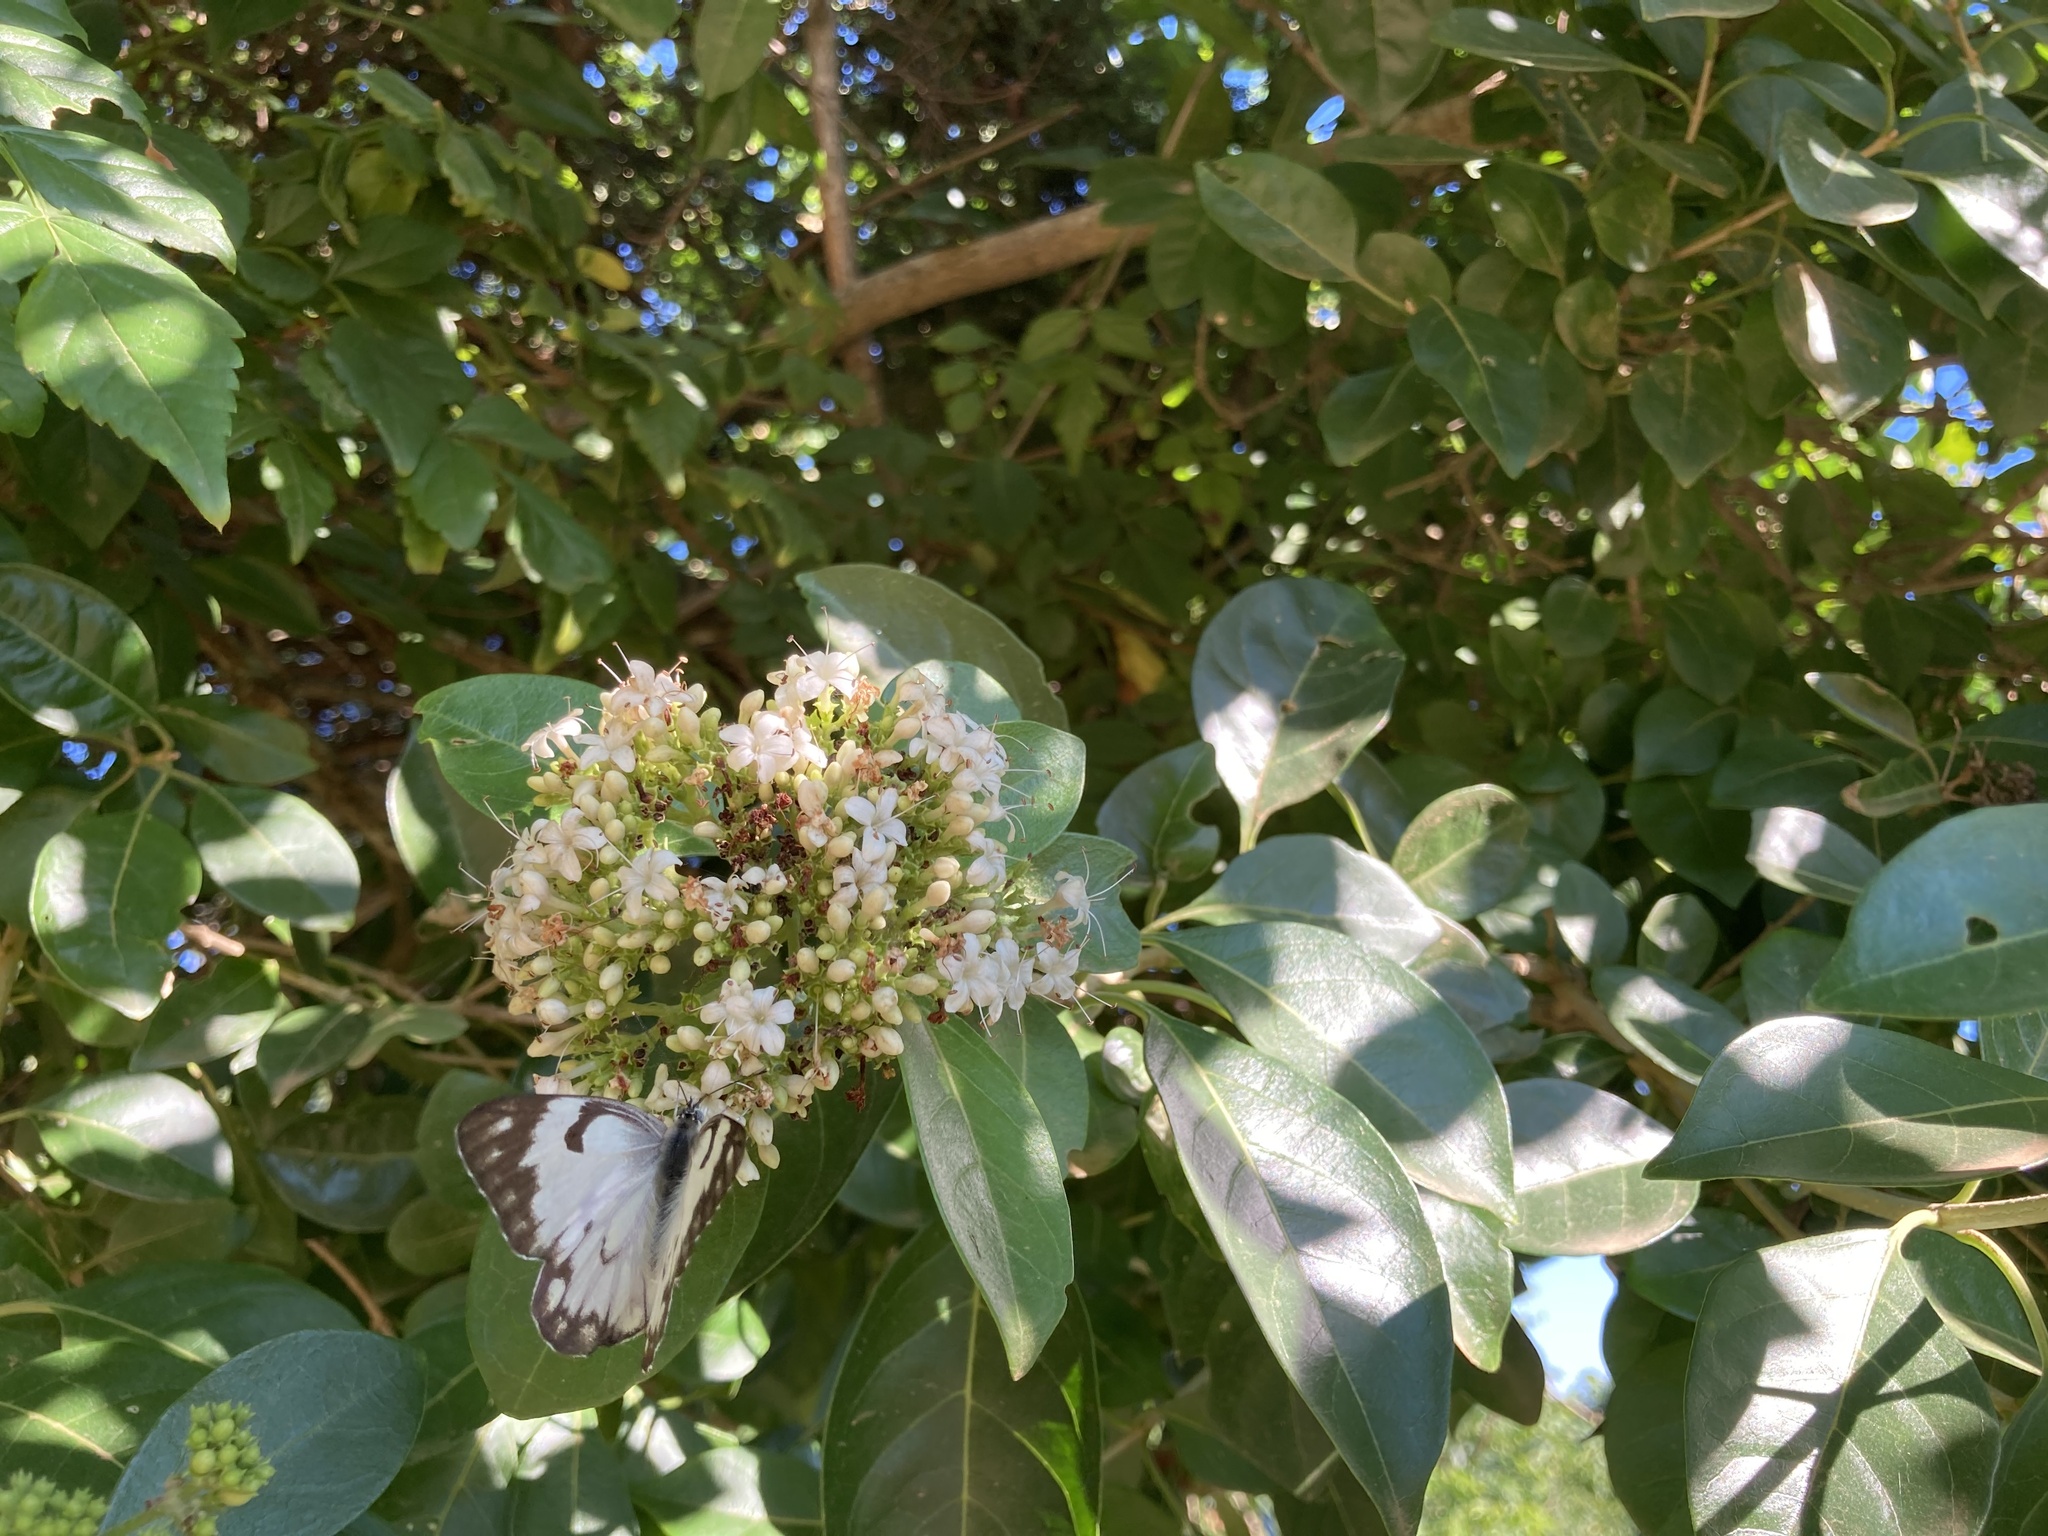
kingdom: Animalia
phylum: Arthropoda
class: Insecta
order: Lepidoptera
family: Pieridae
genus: Belenois
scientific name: Belenois aurota
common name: Brown-veined white
